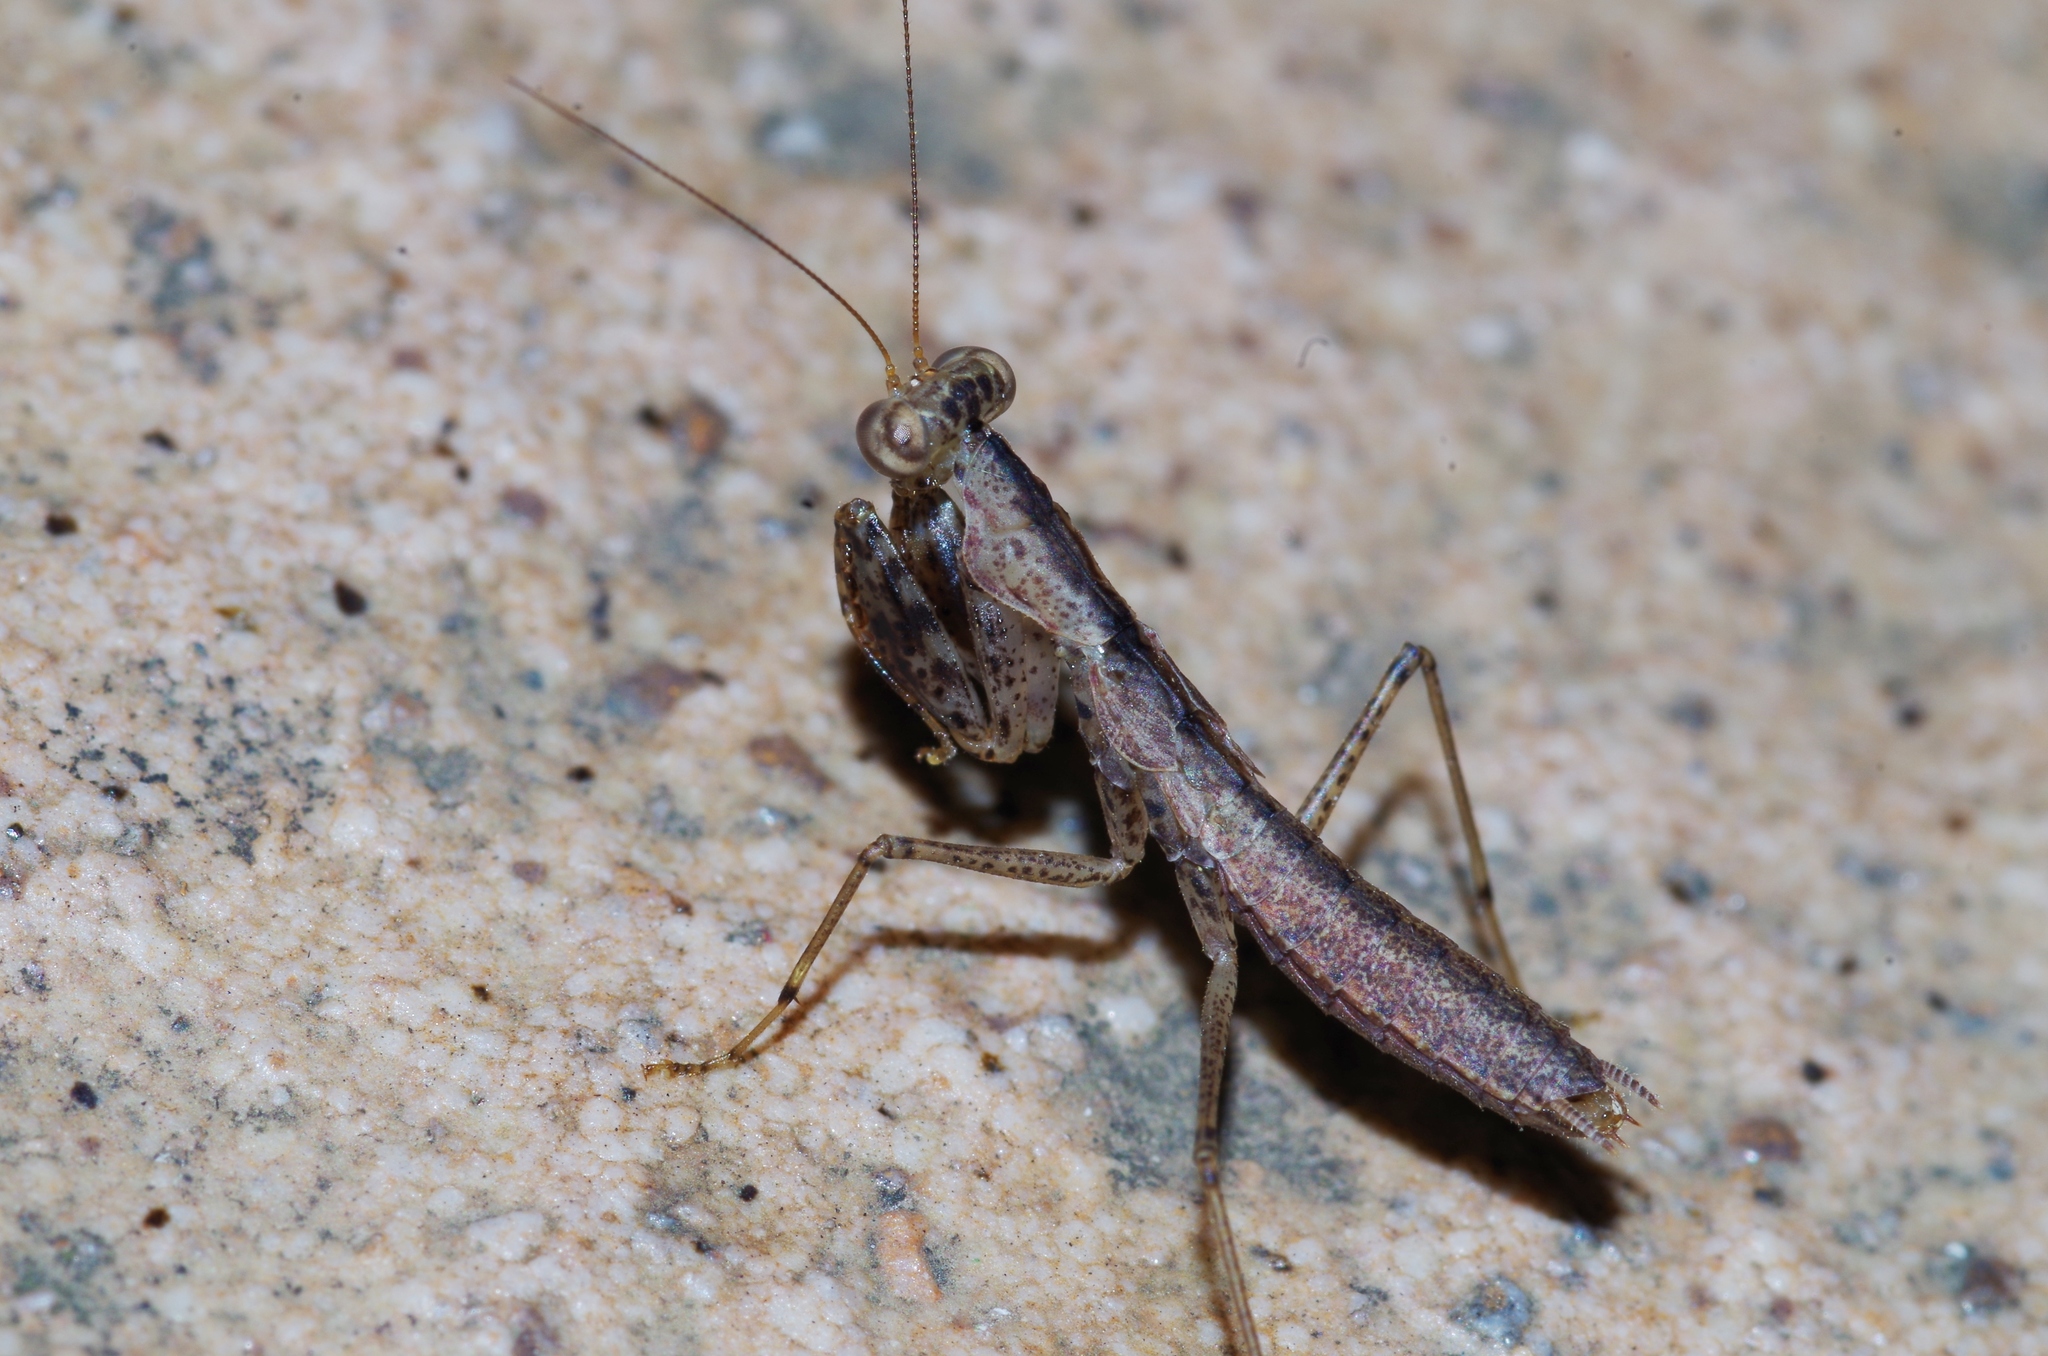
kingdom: Animalia
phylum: Arthropoda
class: Insecta
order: Mantodea
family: Gonypetidae
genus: Amantis
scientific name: Amantis nawai
